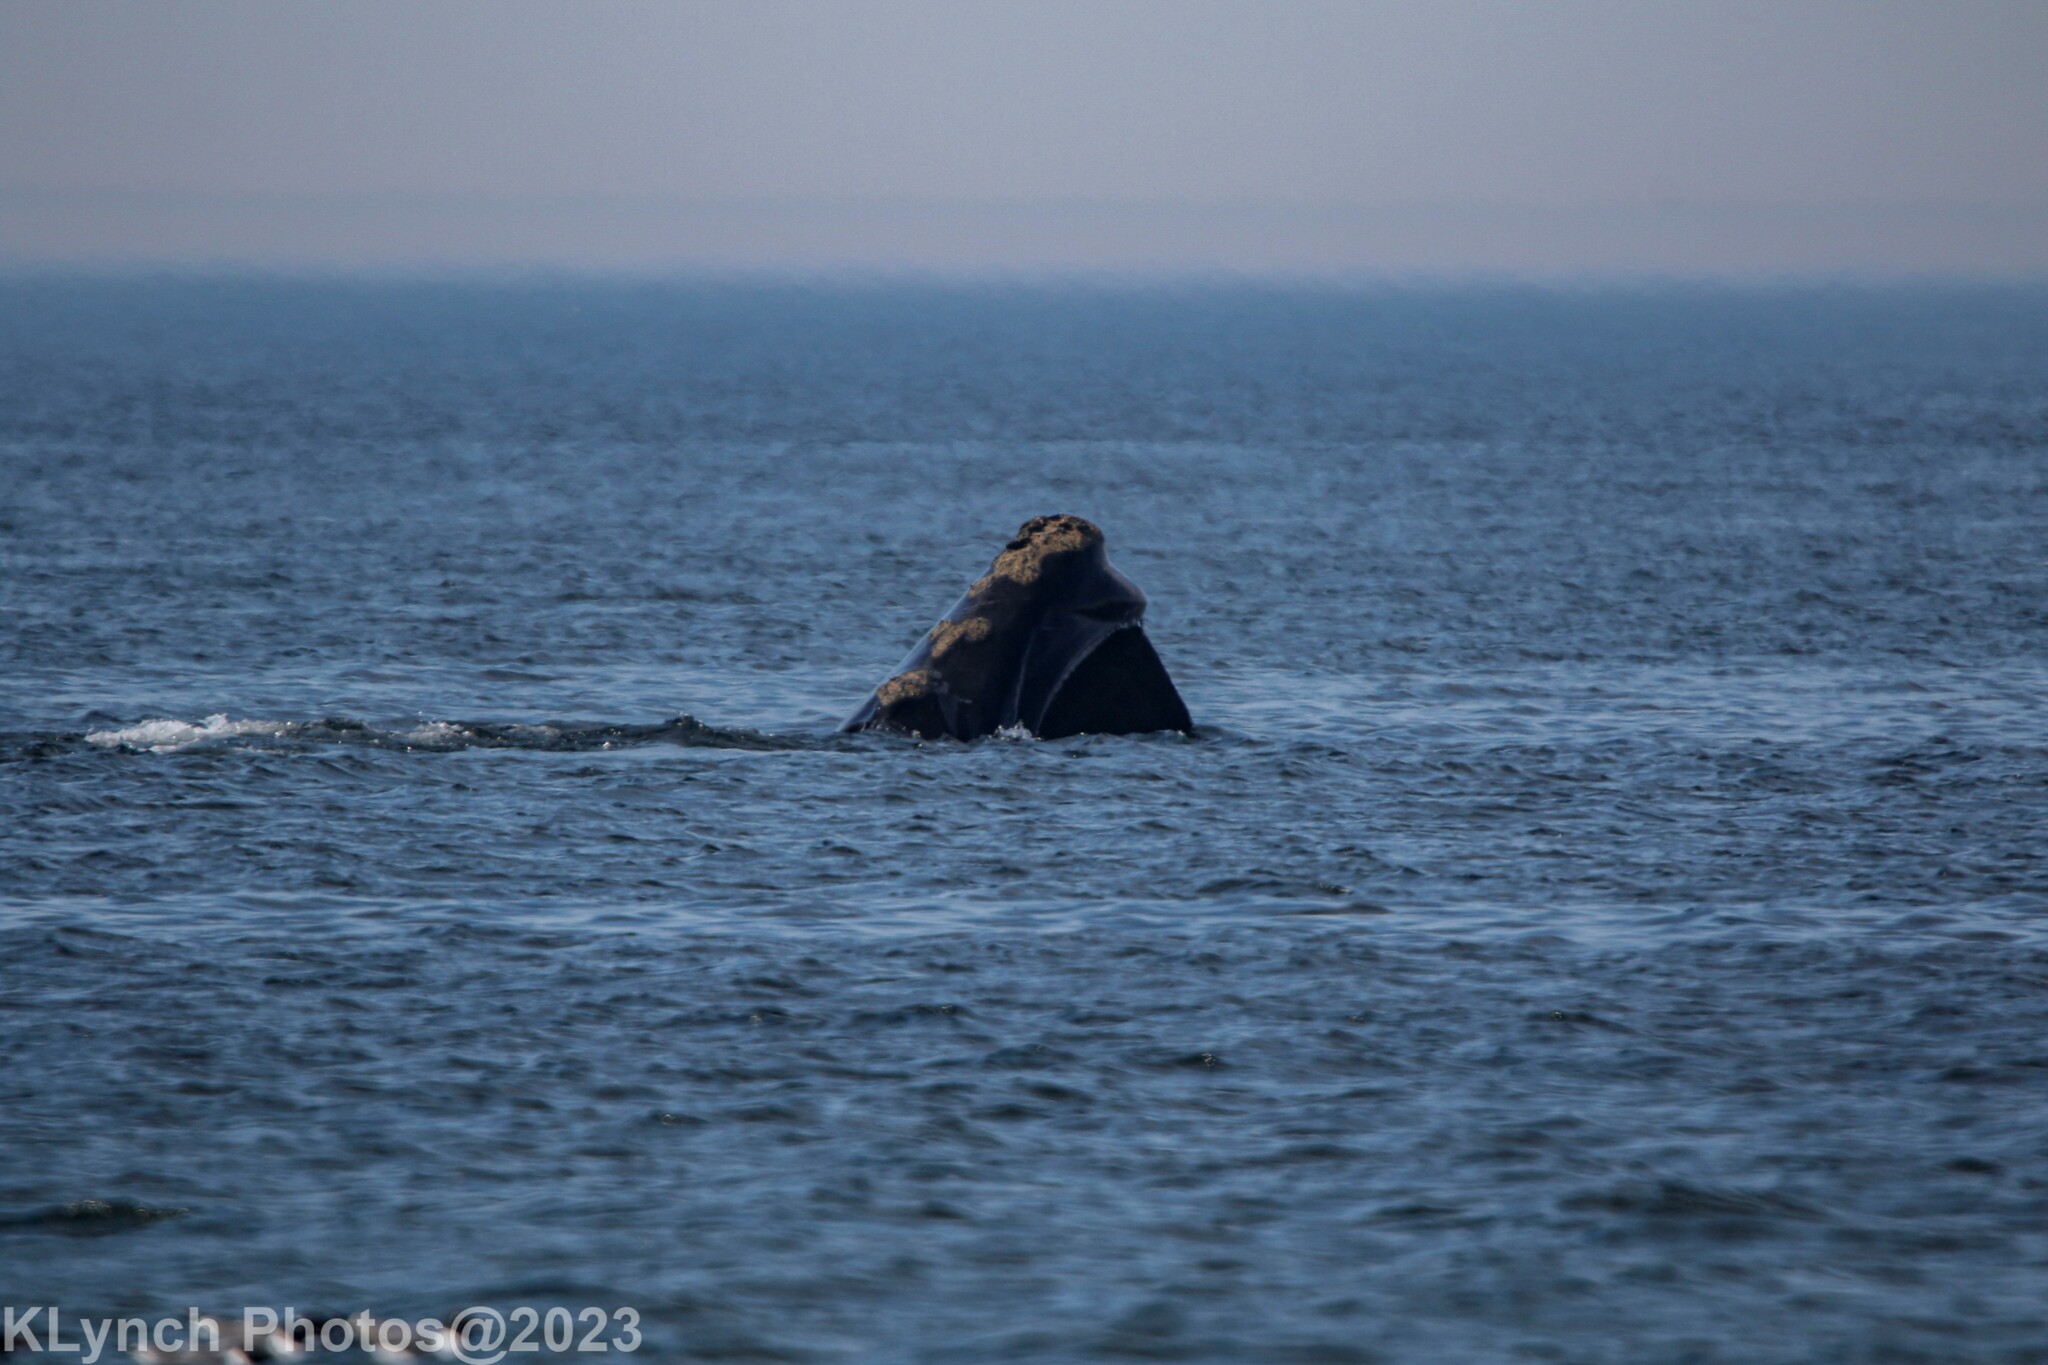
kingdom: Animalia
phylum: Chordata
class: Mammalia
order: Cetacea
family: Balaenidae
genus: Eubalaena
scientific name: Eubalaena glacialis
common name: North atlantic right whale
